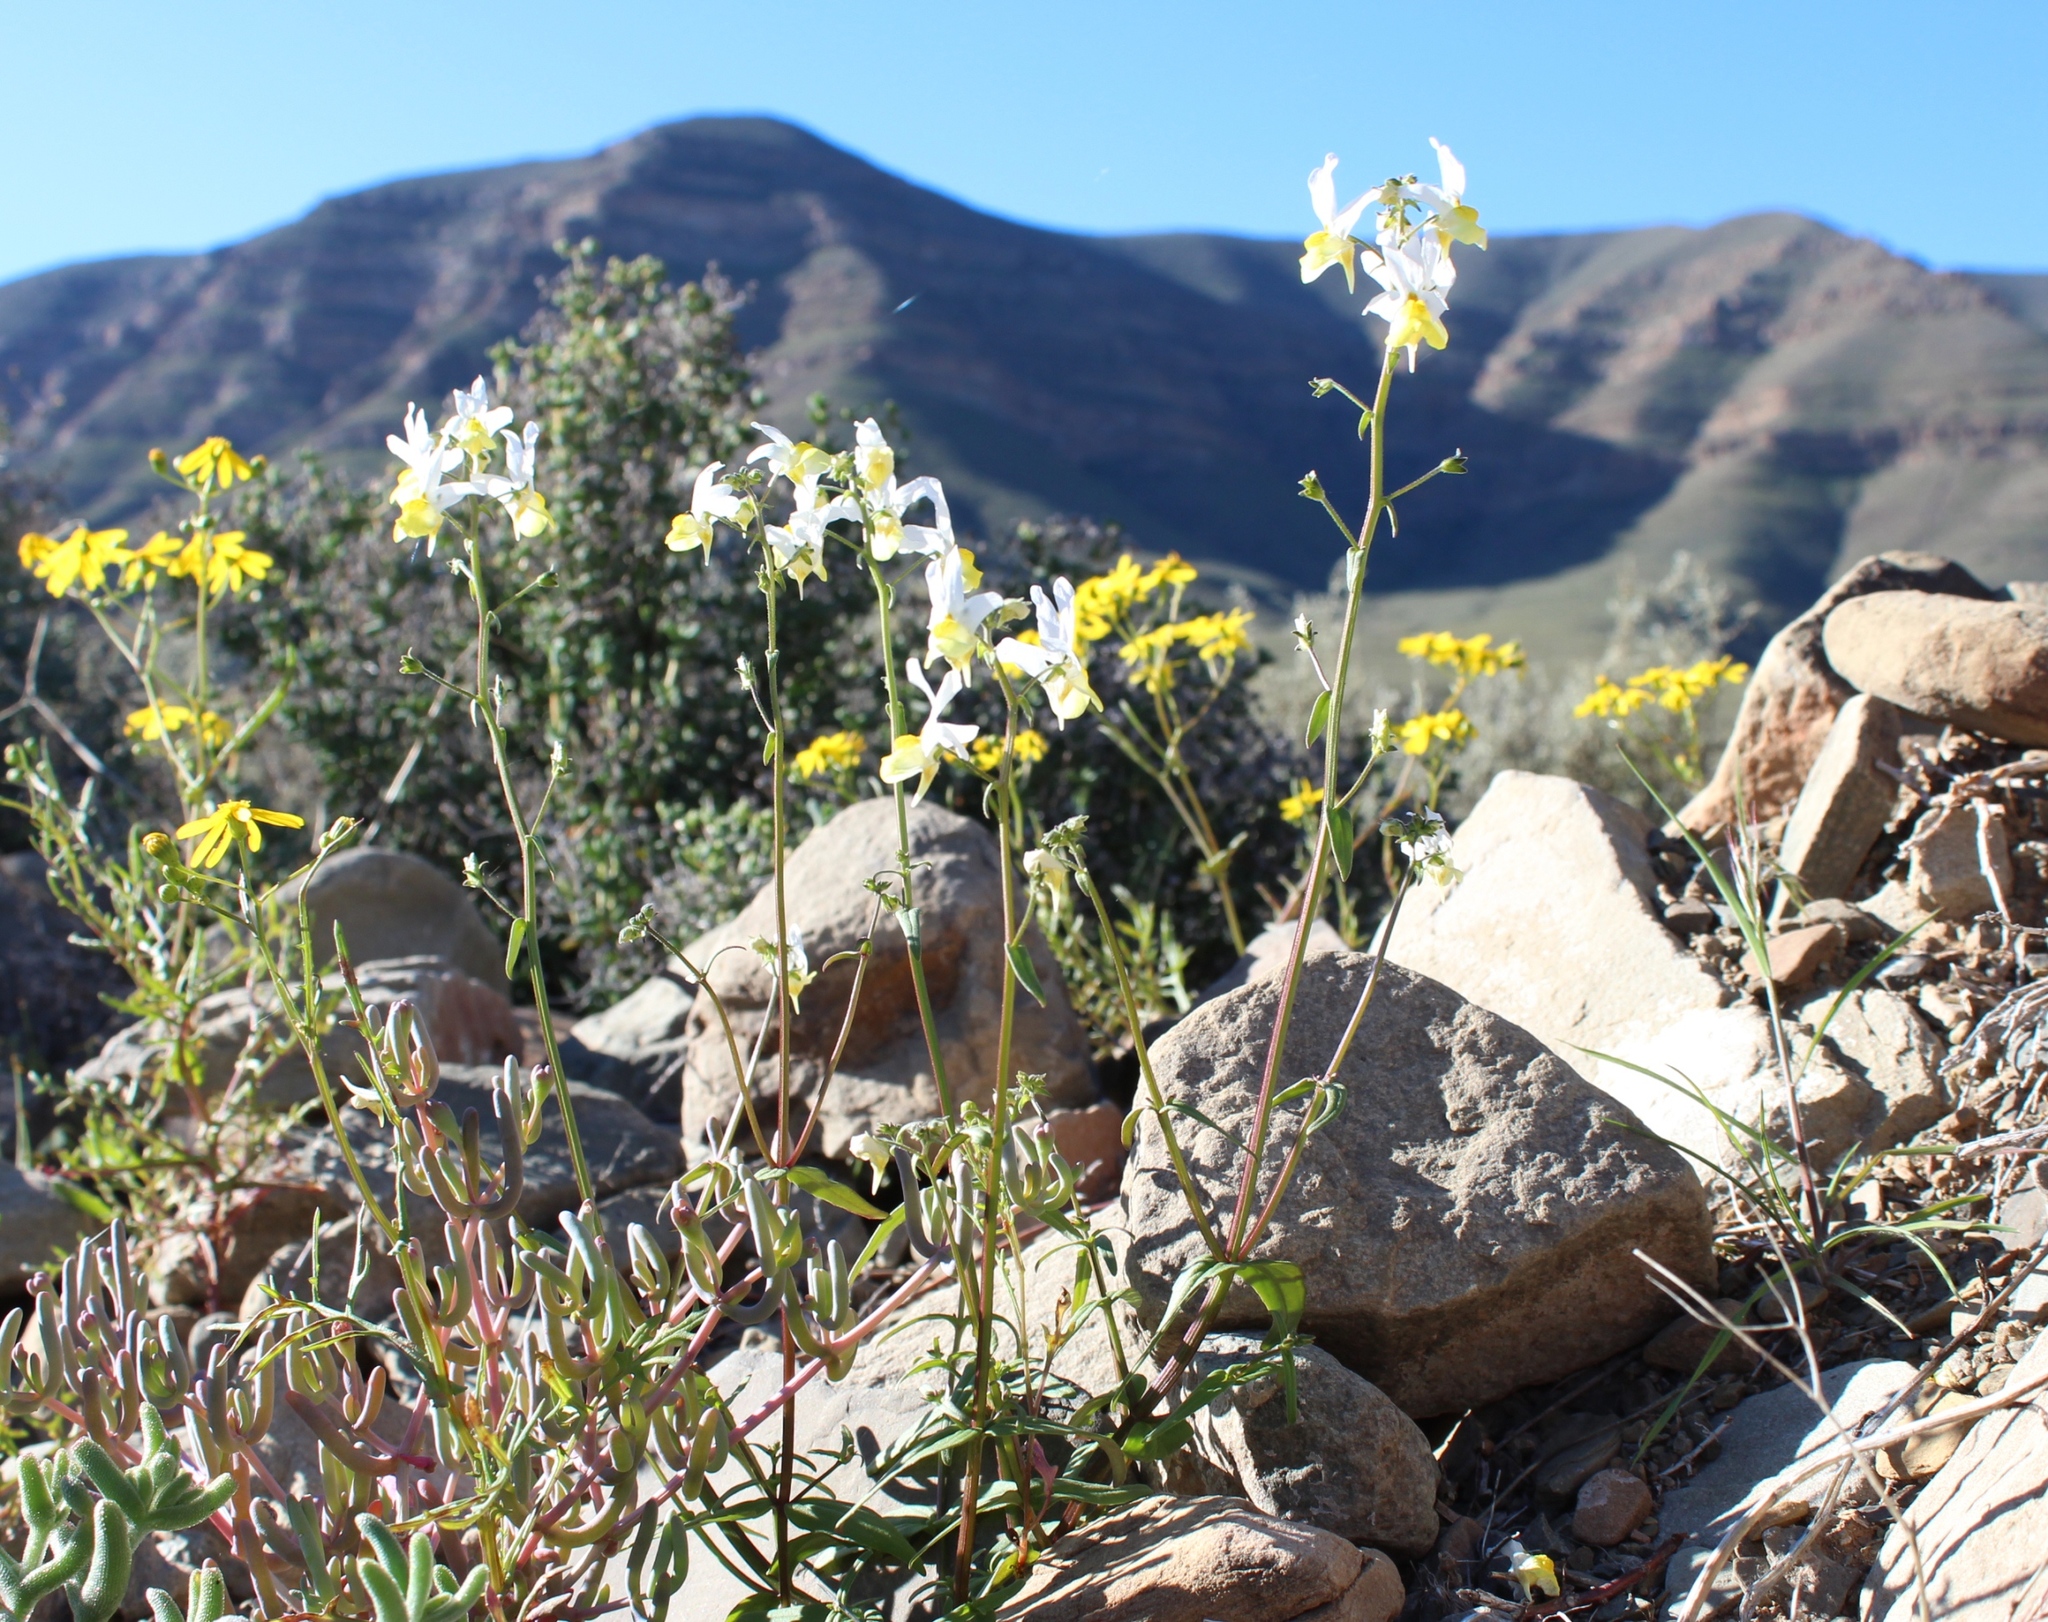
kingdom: Plantae
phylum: Tracheophyta
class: Magnoliopsida
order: Lamiales
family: Scrophulariaceae
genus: Nemesia
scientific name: Nemesia anisocarpa
